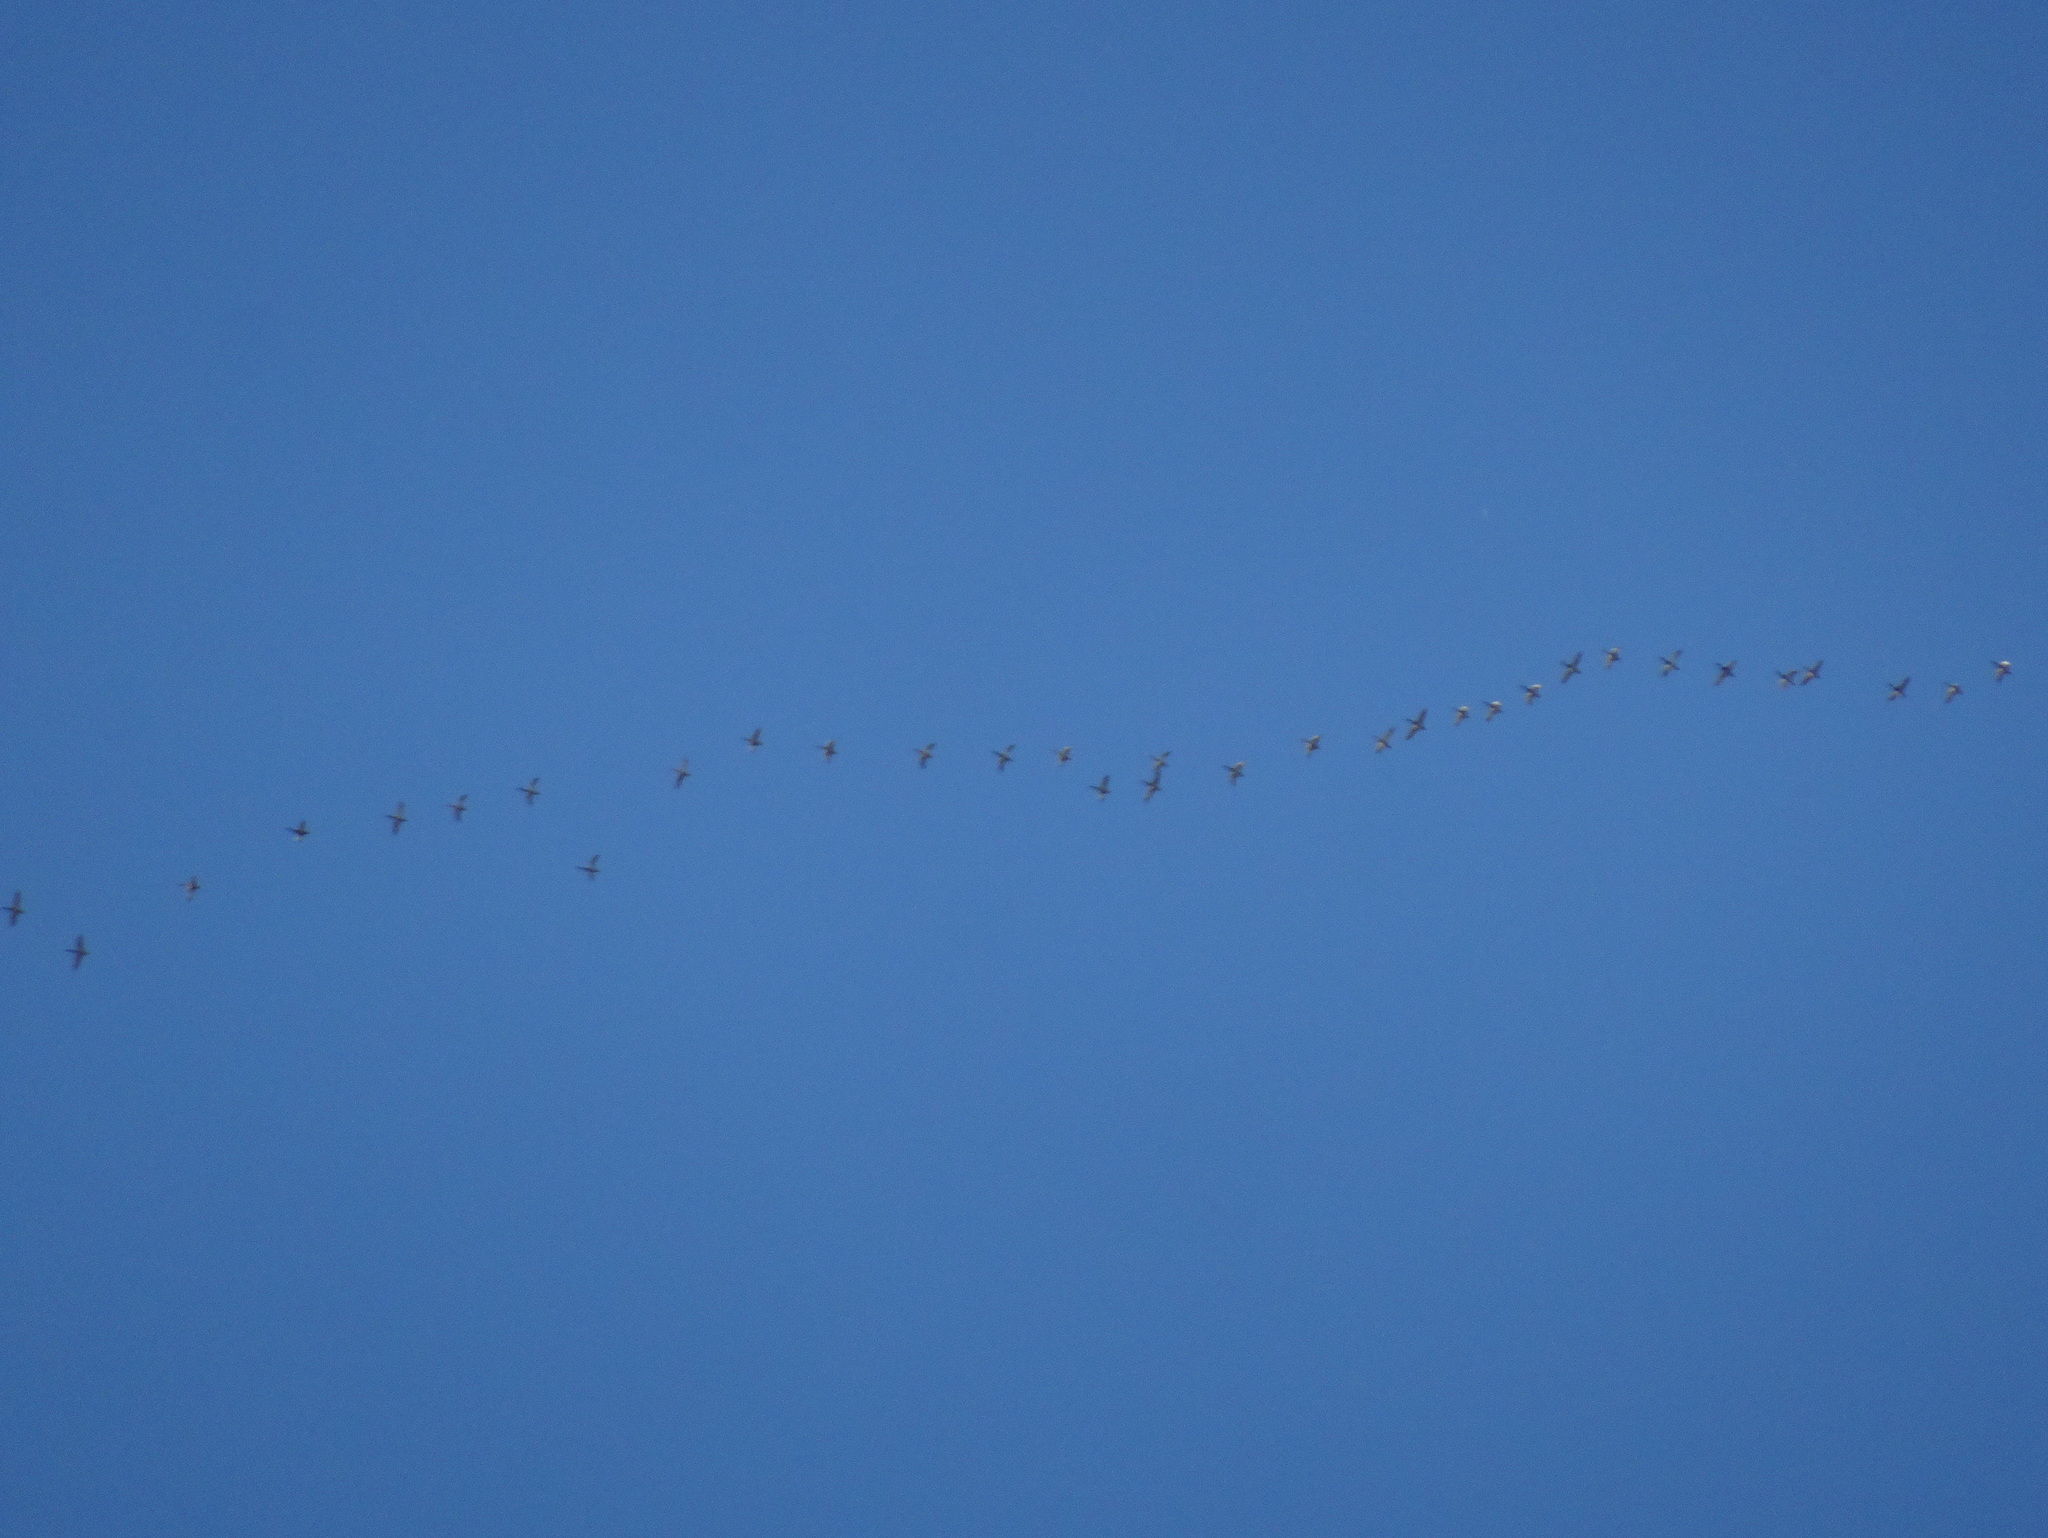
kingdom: Animalia
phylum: Chordata
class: Aves
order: Anseriformes
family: Anatidae
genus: Anas
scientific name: Anas platyrhynchos
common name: Mallard
